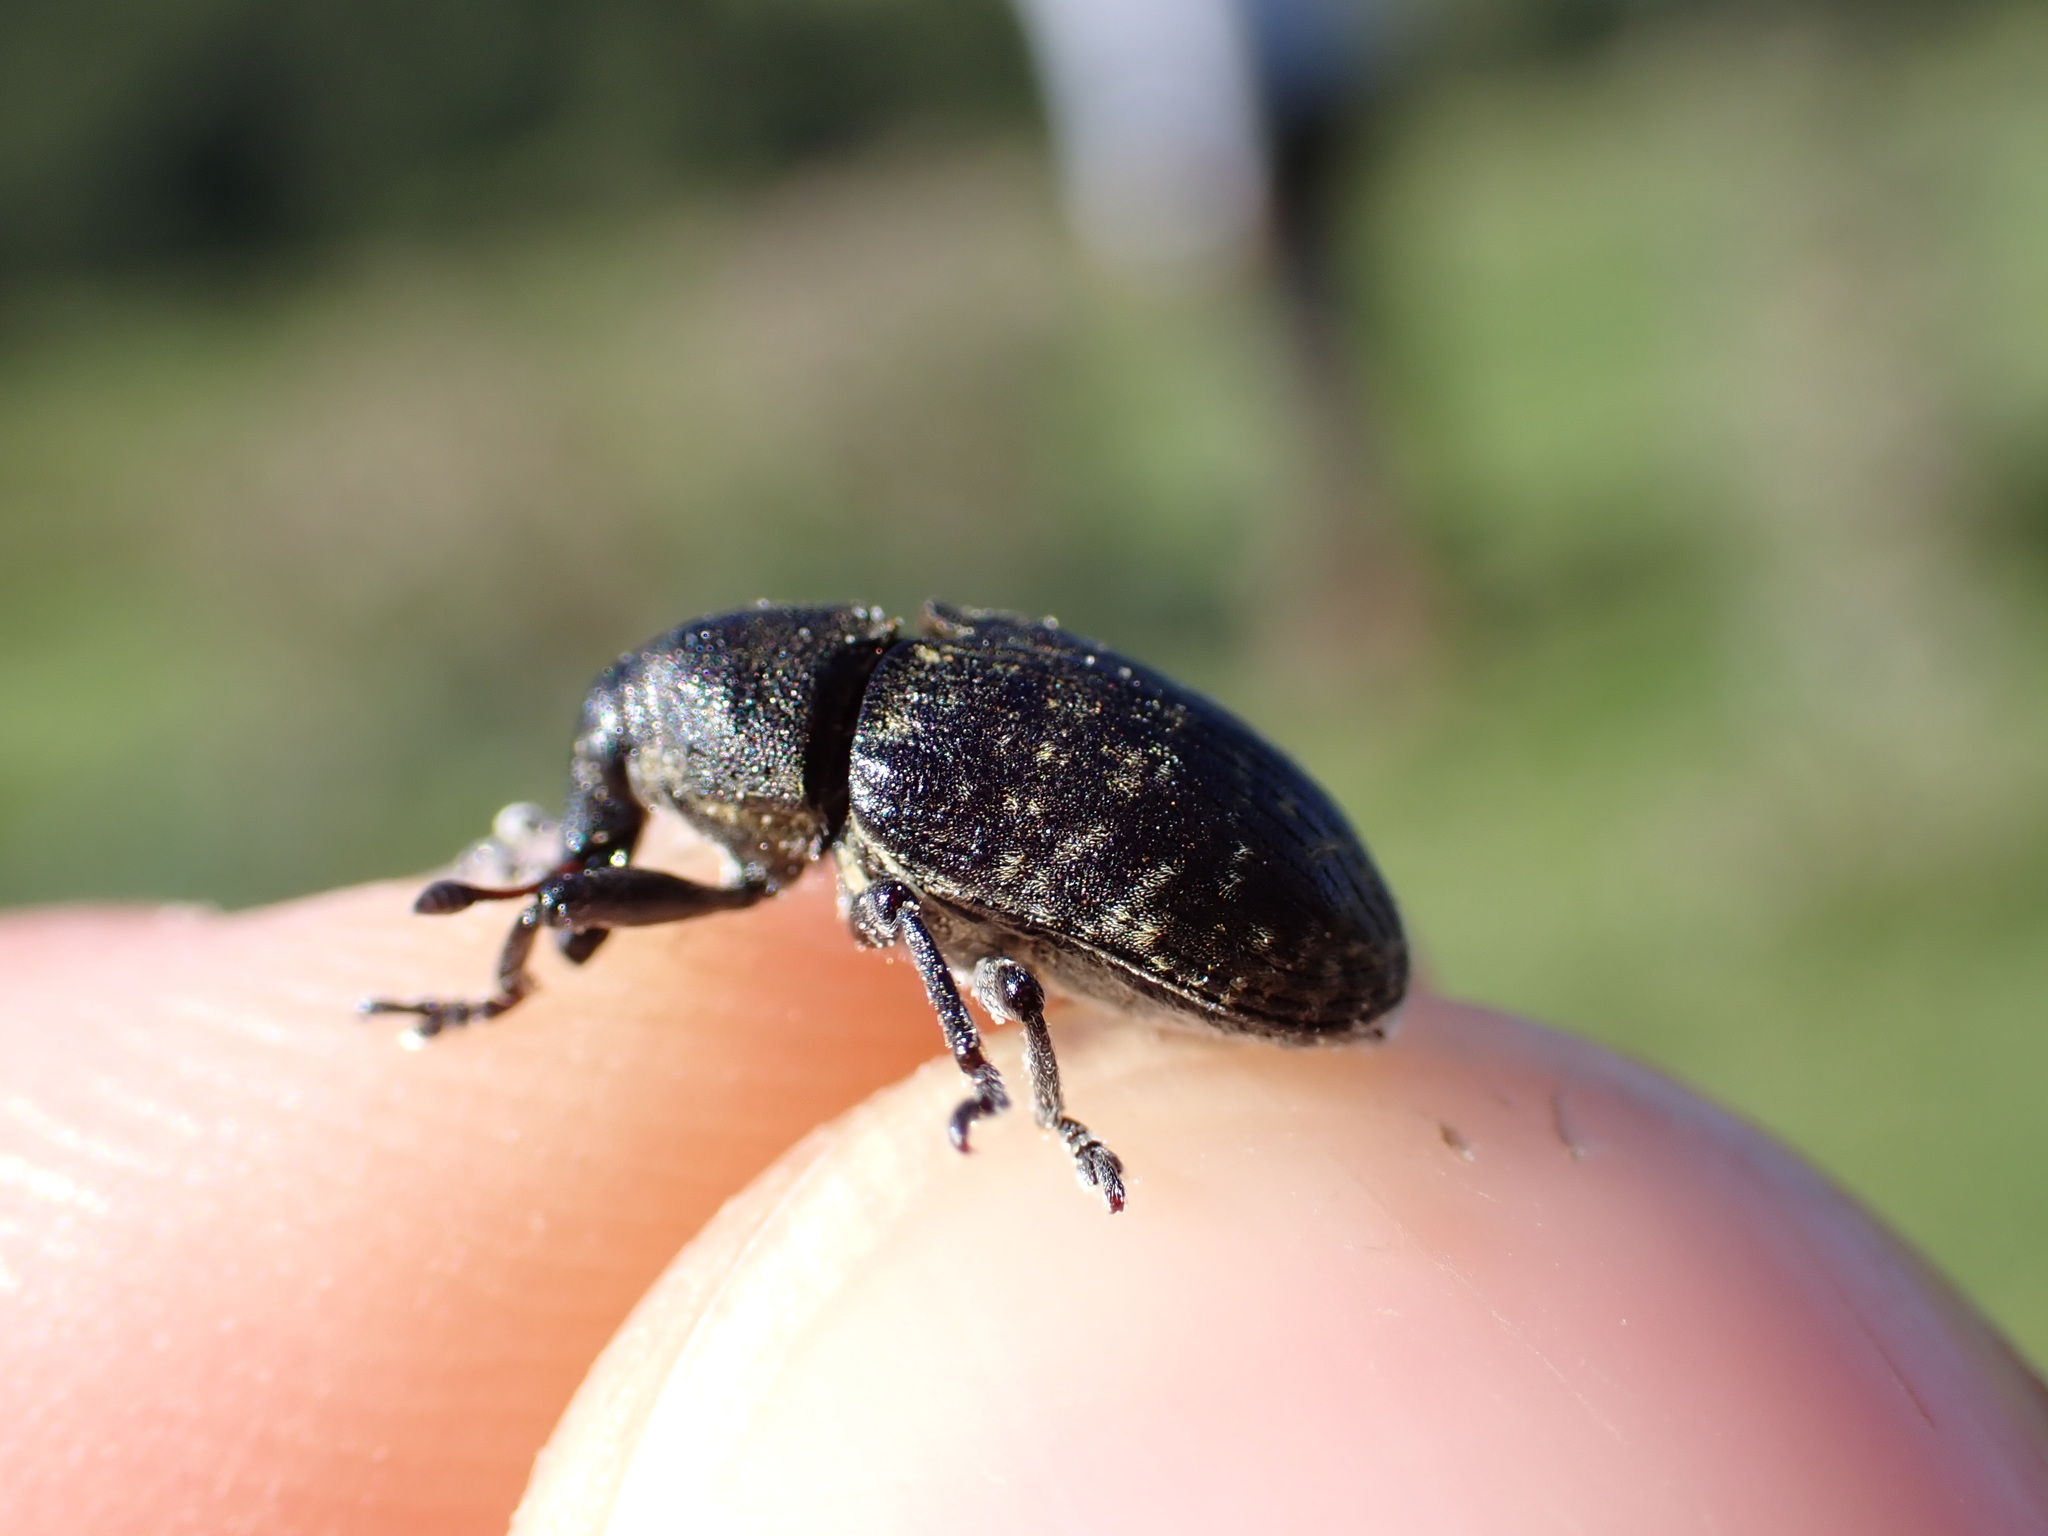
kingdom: Animalia
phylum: Arthropoda
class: Insecta
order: Coleoptera
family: Curculionidae
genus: Larinus
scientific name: Larinus turbinatus
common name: Weevil
